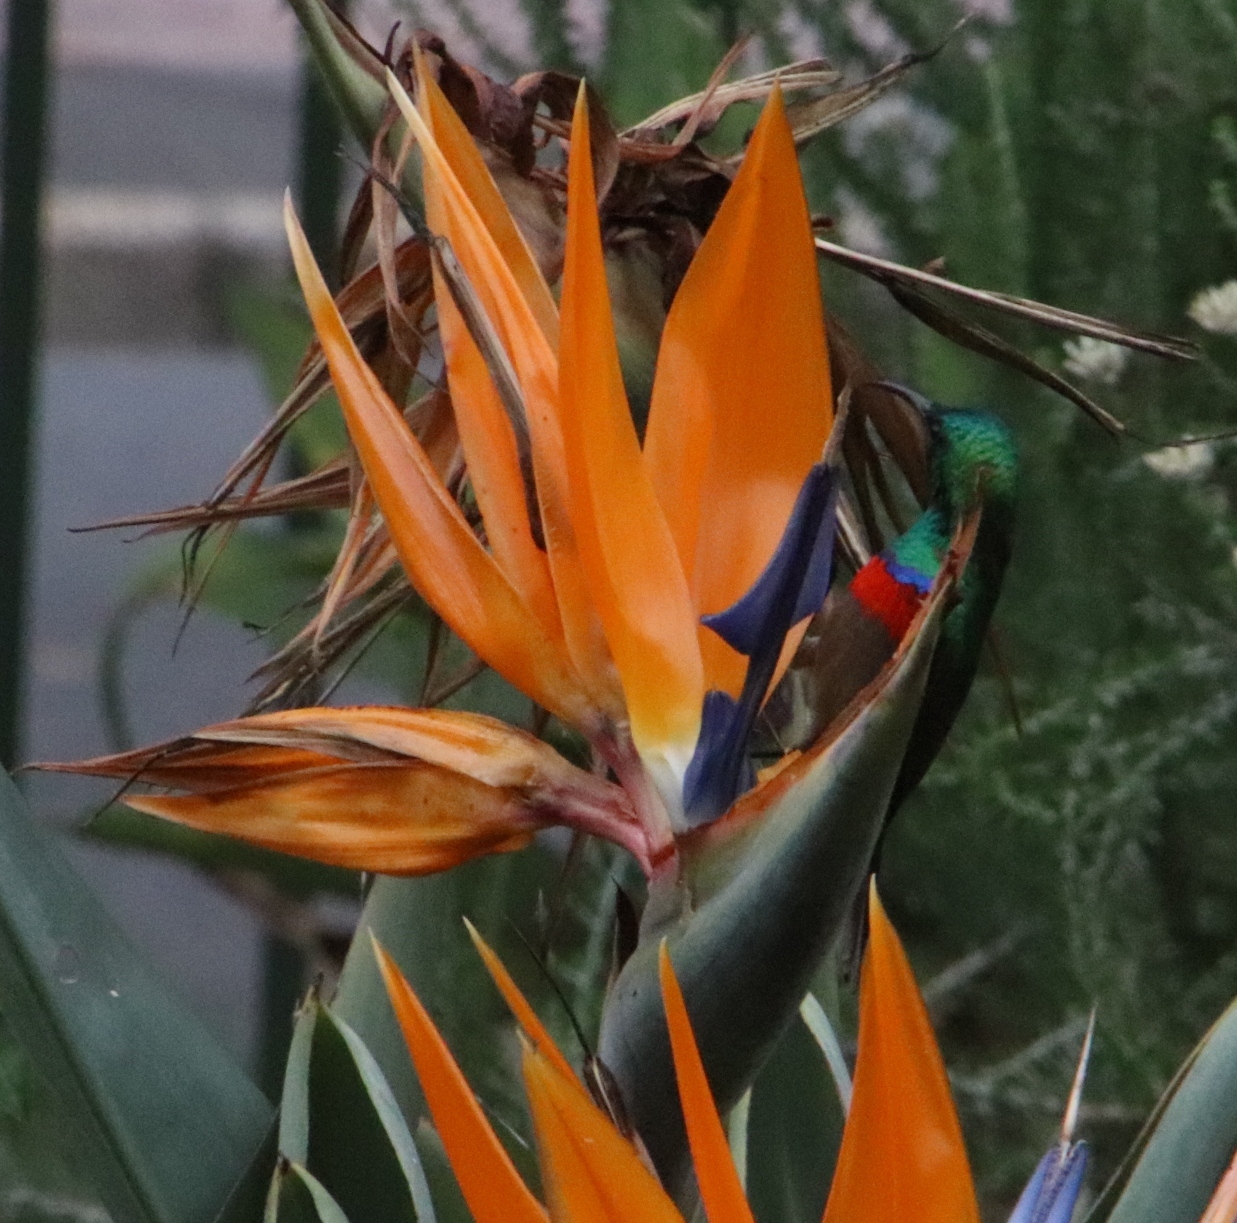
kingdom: Animalia
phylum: Chordata
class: Aves
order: Passeriformes
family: Nectariniidae
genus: Cinnyris
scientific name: Cinnyris chalybeus
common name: Southern double-collared sunbird
